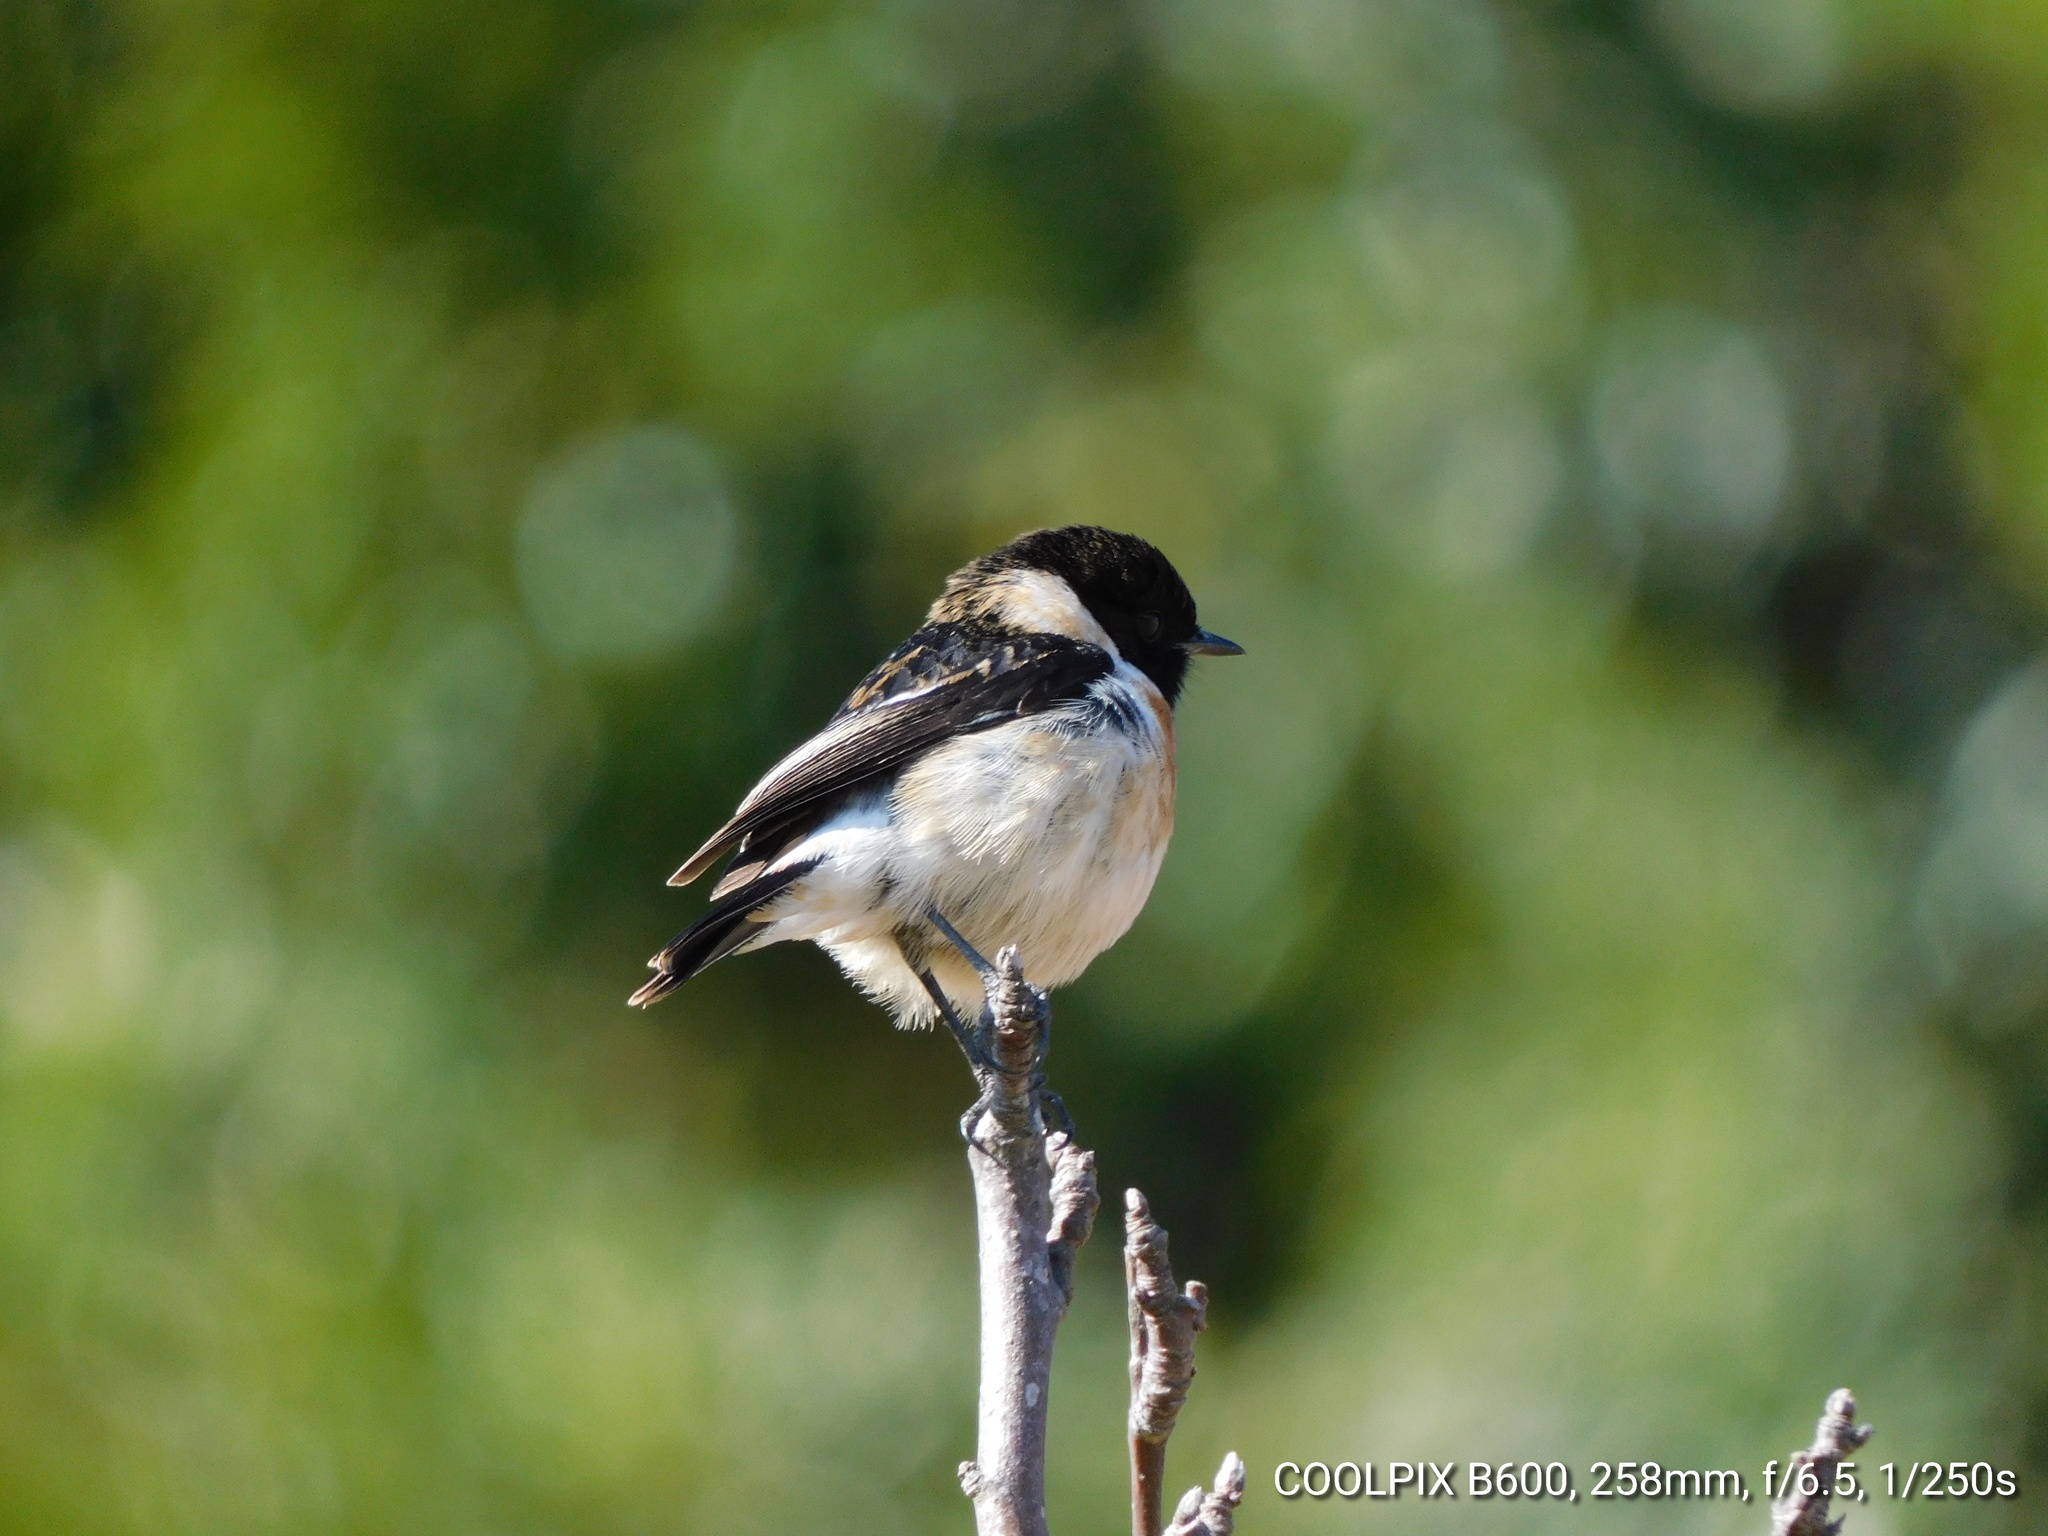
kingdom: Animalia
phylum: Chordata
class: Aves
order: Passeriformes
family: Muscicapidae
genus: Saxicola
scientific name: Saxicola maurus
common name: Siberian stonechat
